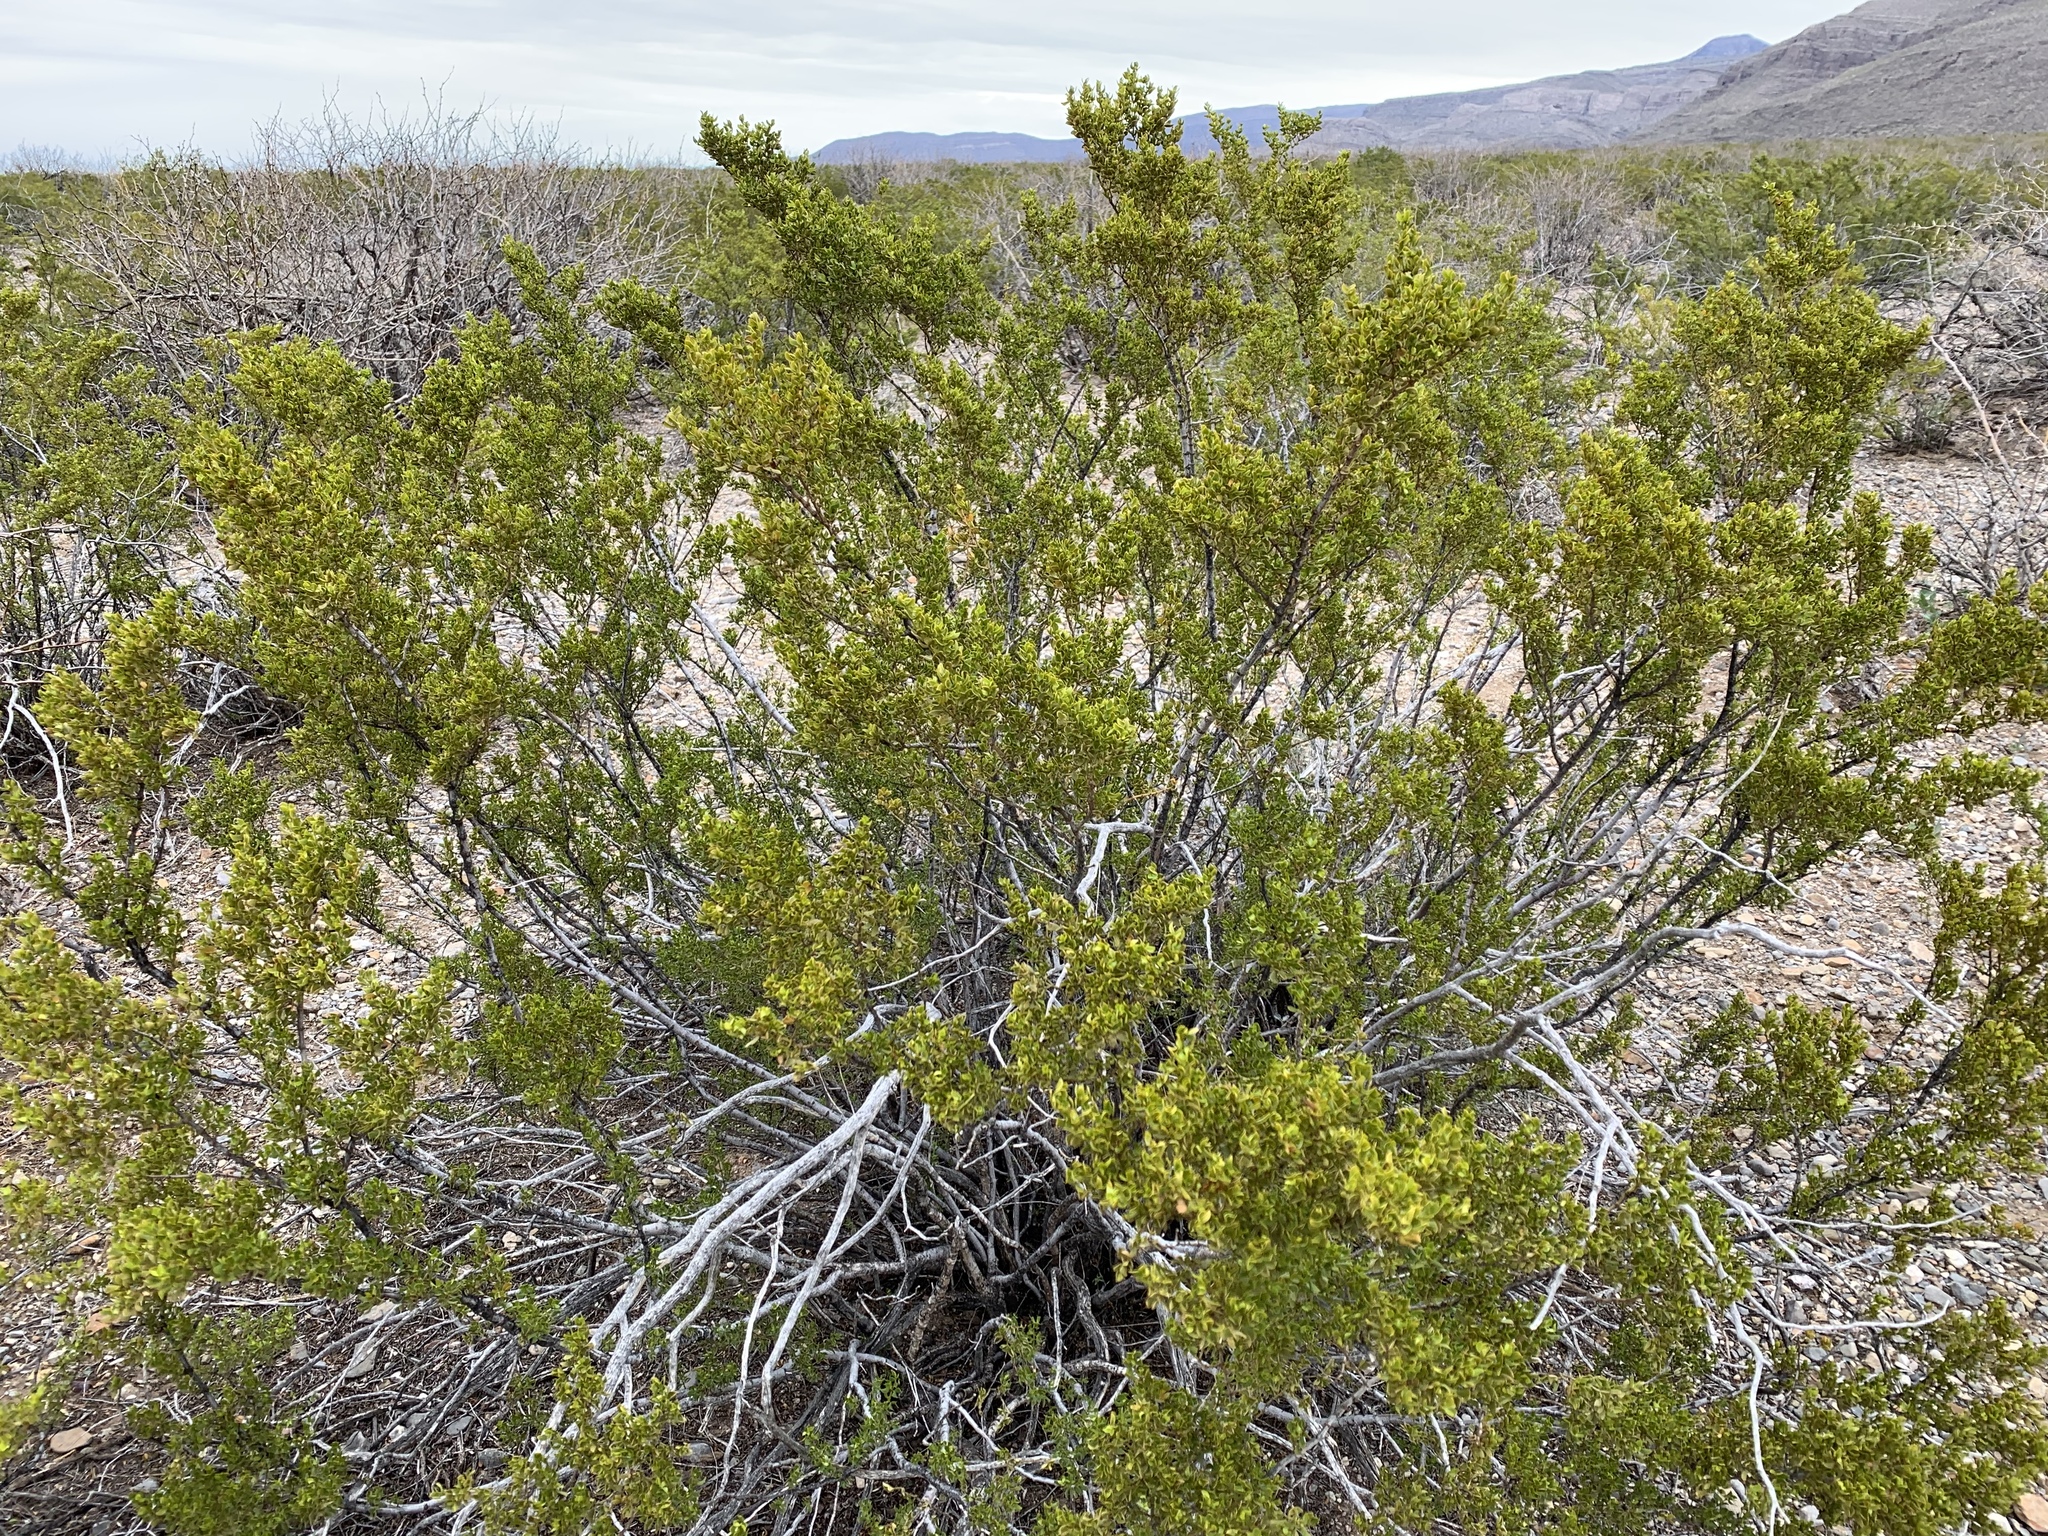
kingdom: Plantae
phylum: Tracheophyta
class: Magnoliopsida
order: Zygophyllales
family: Zygophyllaceae
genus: Larrea
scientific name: Larrea tridentata
